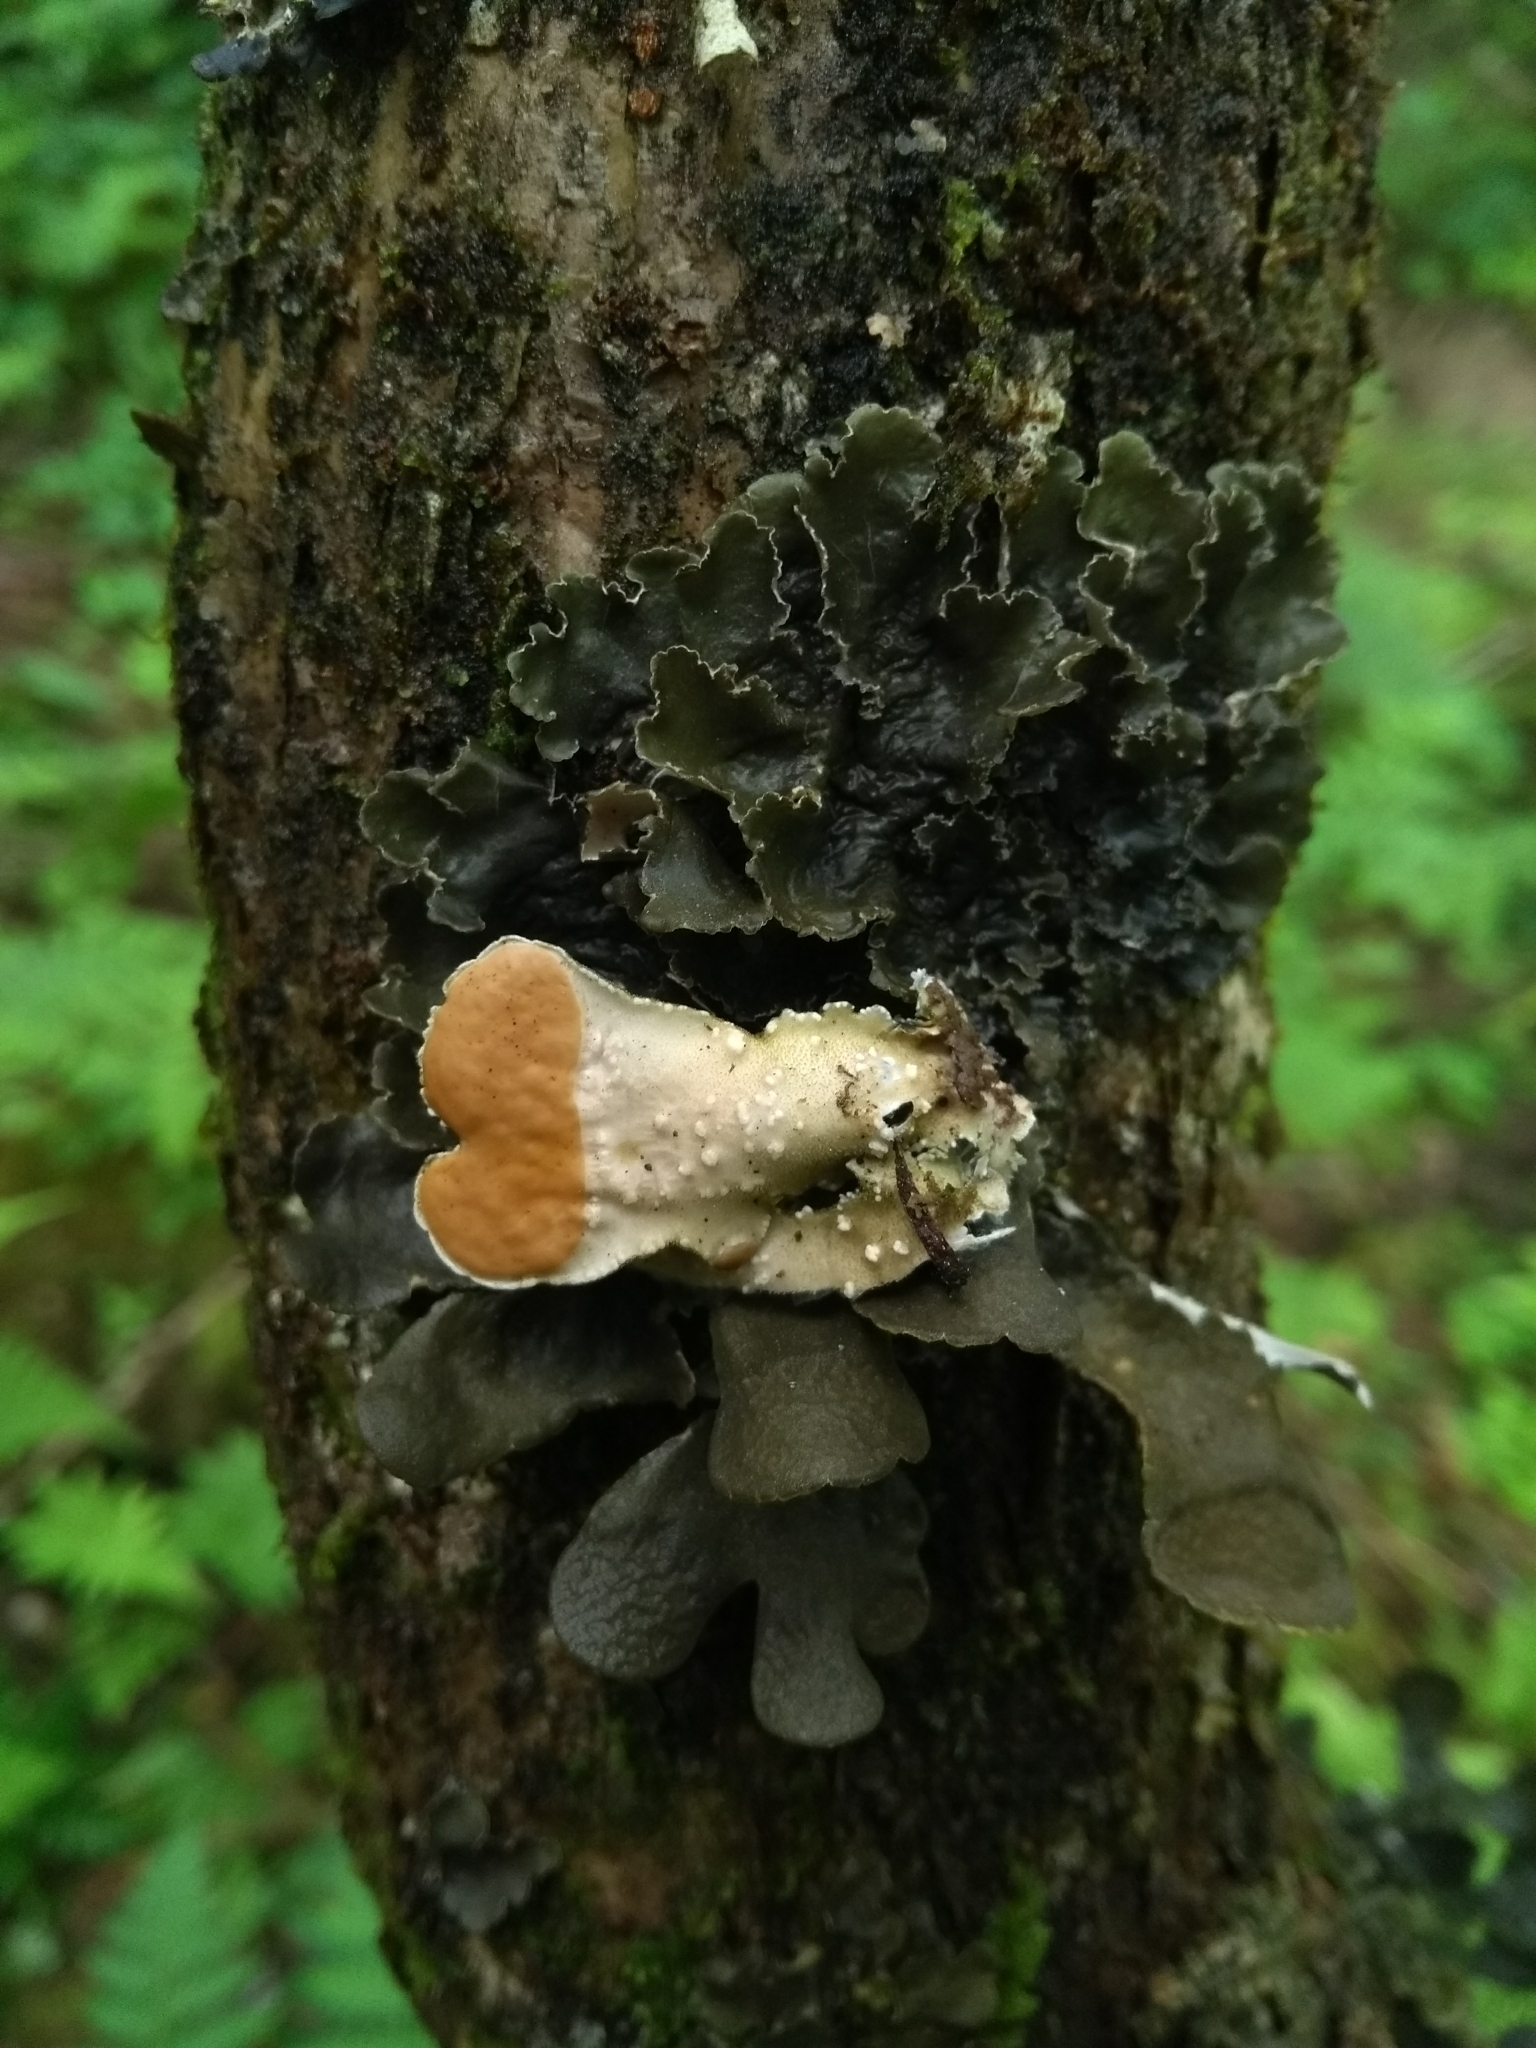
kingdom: Fungi
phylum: Ascomycota
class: Lecanoromycetes
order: Peltigerales
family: Nephromataceae
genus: Nephroma
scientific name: Nephroma resupinatum
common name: Pimpled kidney lichen
